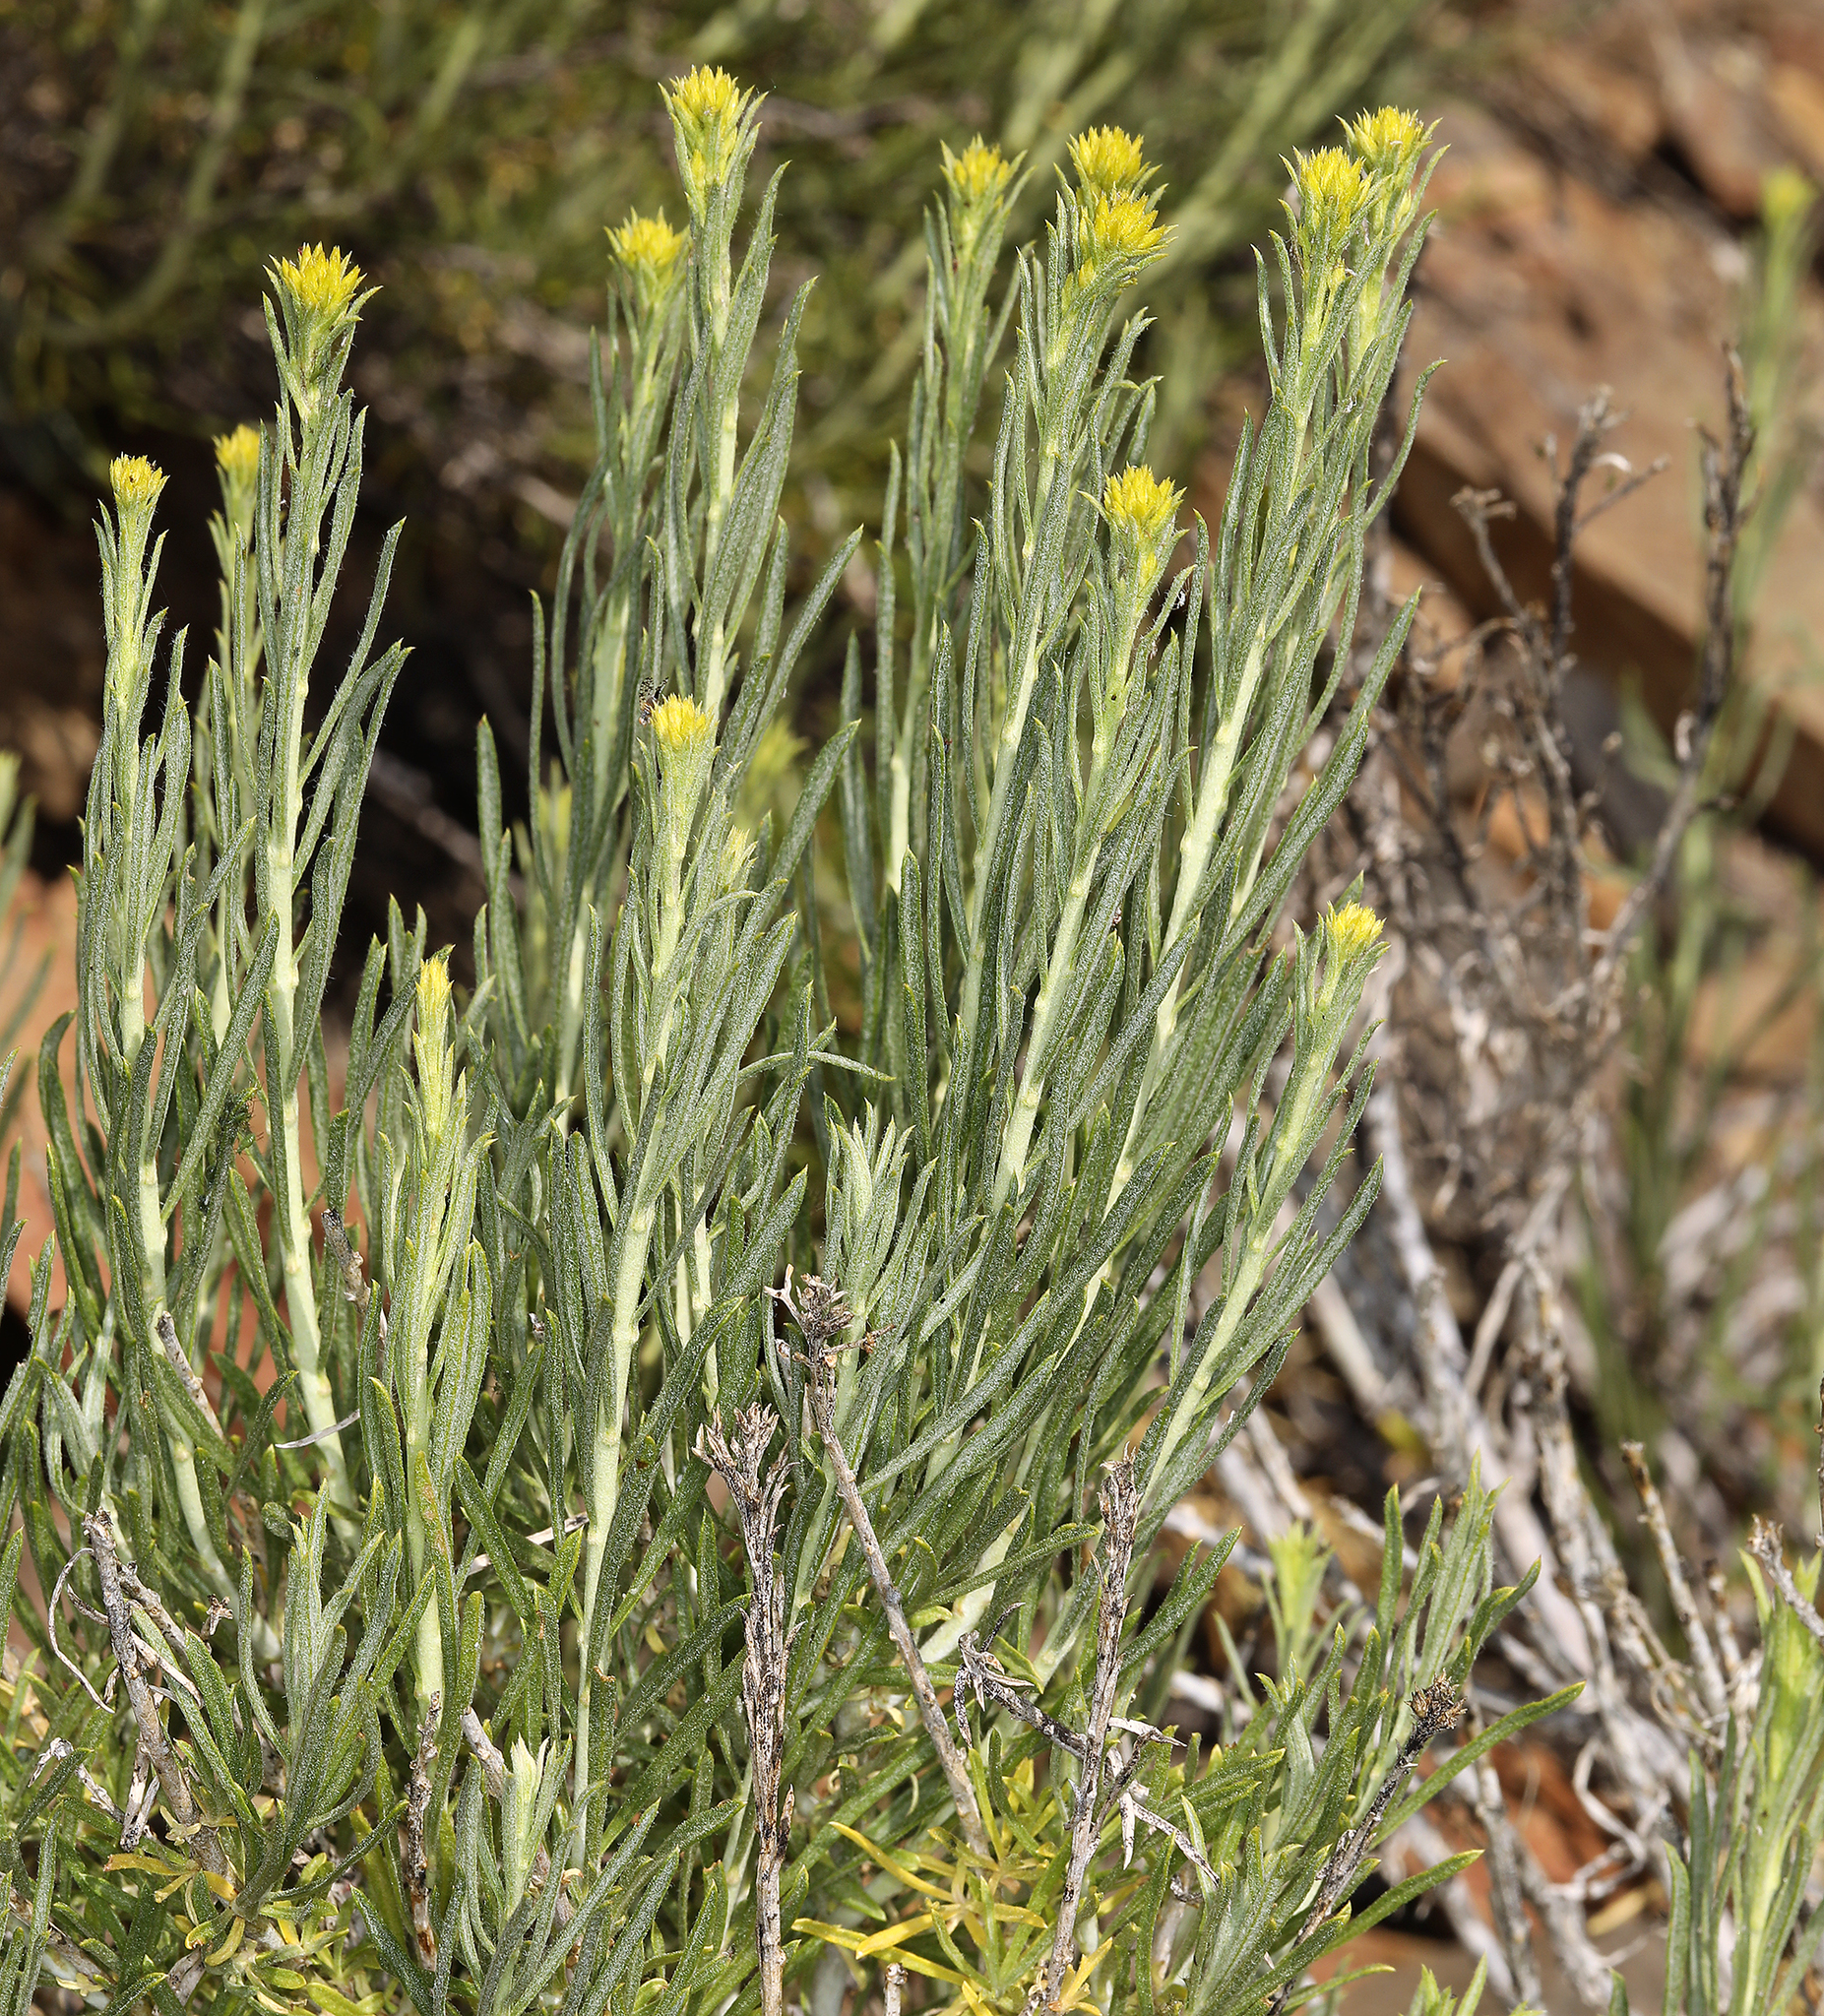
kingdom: Plantae
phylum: Tracheophyta
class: Magnoliopsida
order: Asterales
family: Asteraceae
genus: Ericameria
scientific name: Ericameria nauseosa
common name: Rubber rabbitbrush
